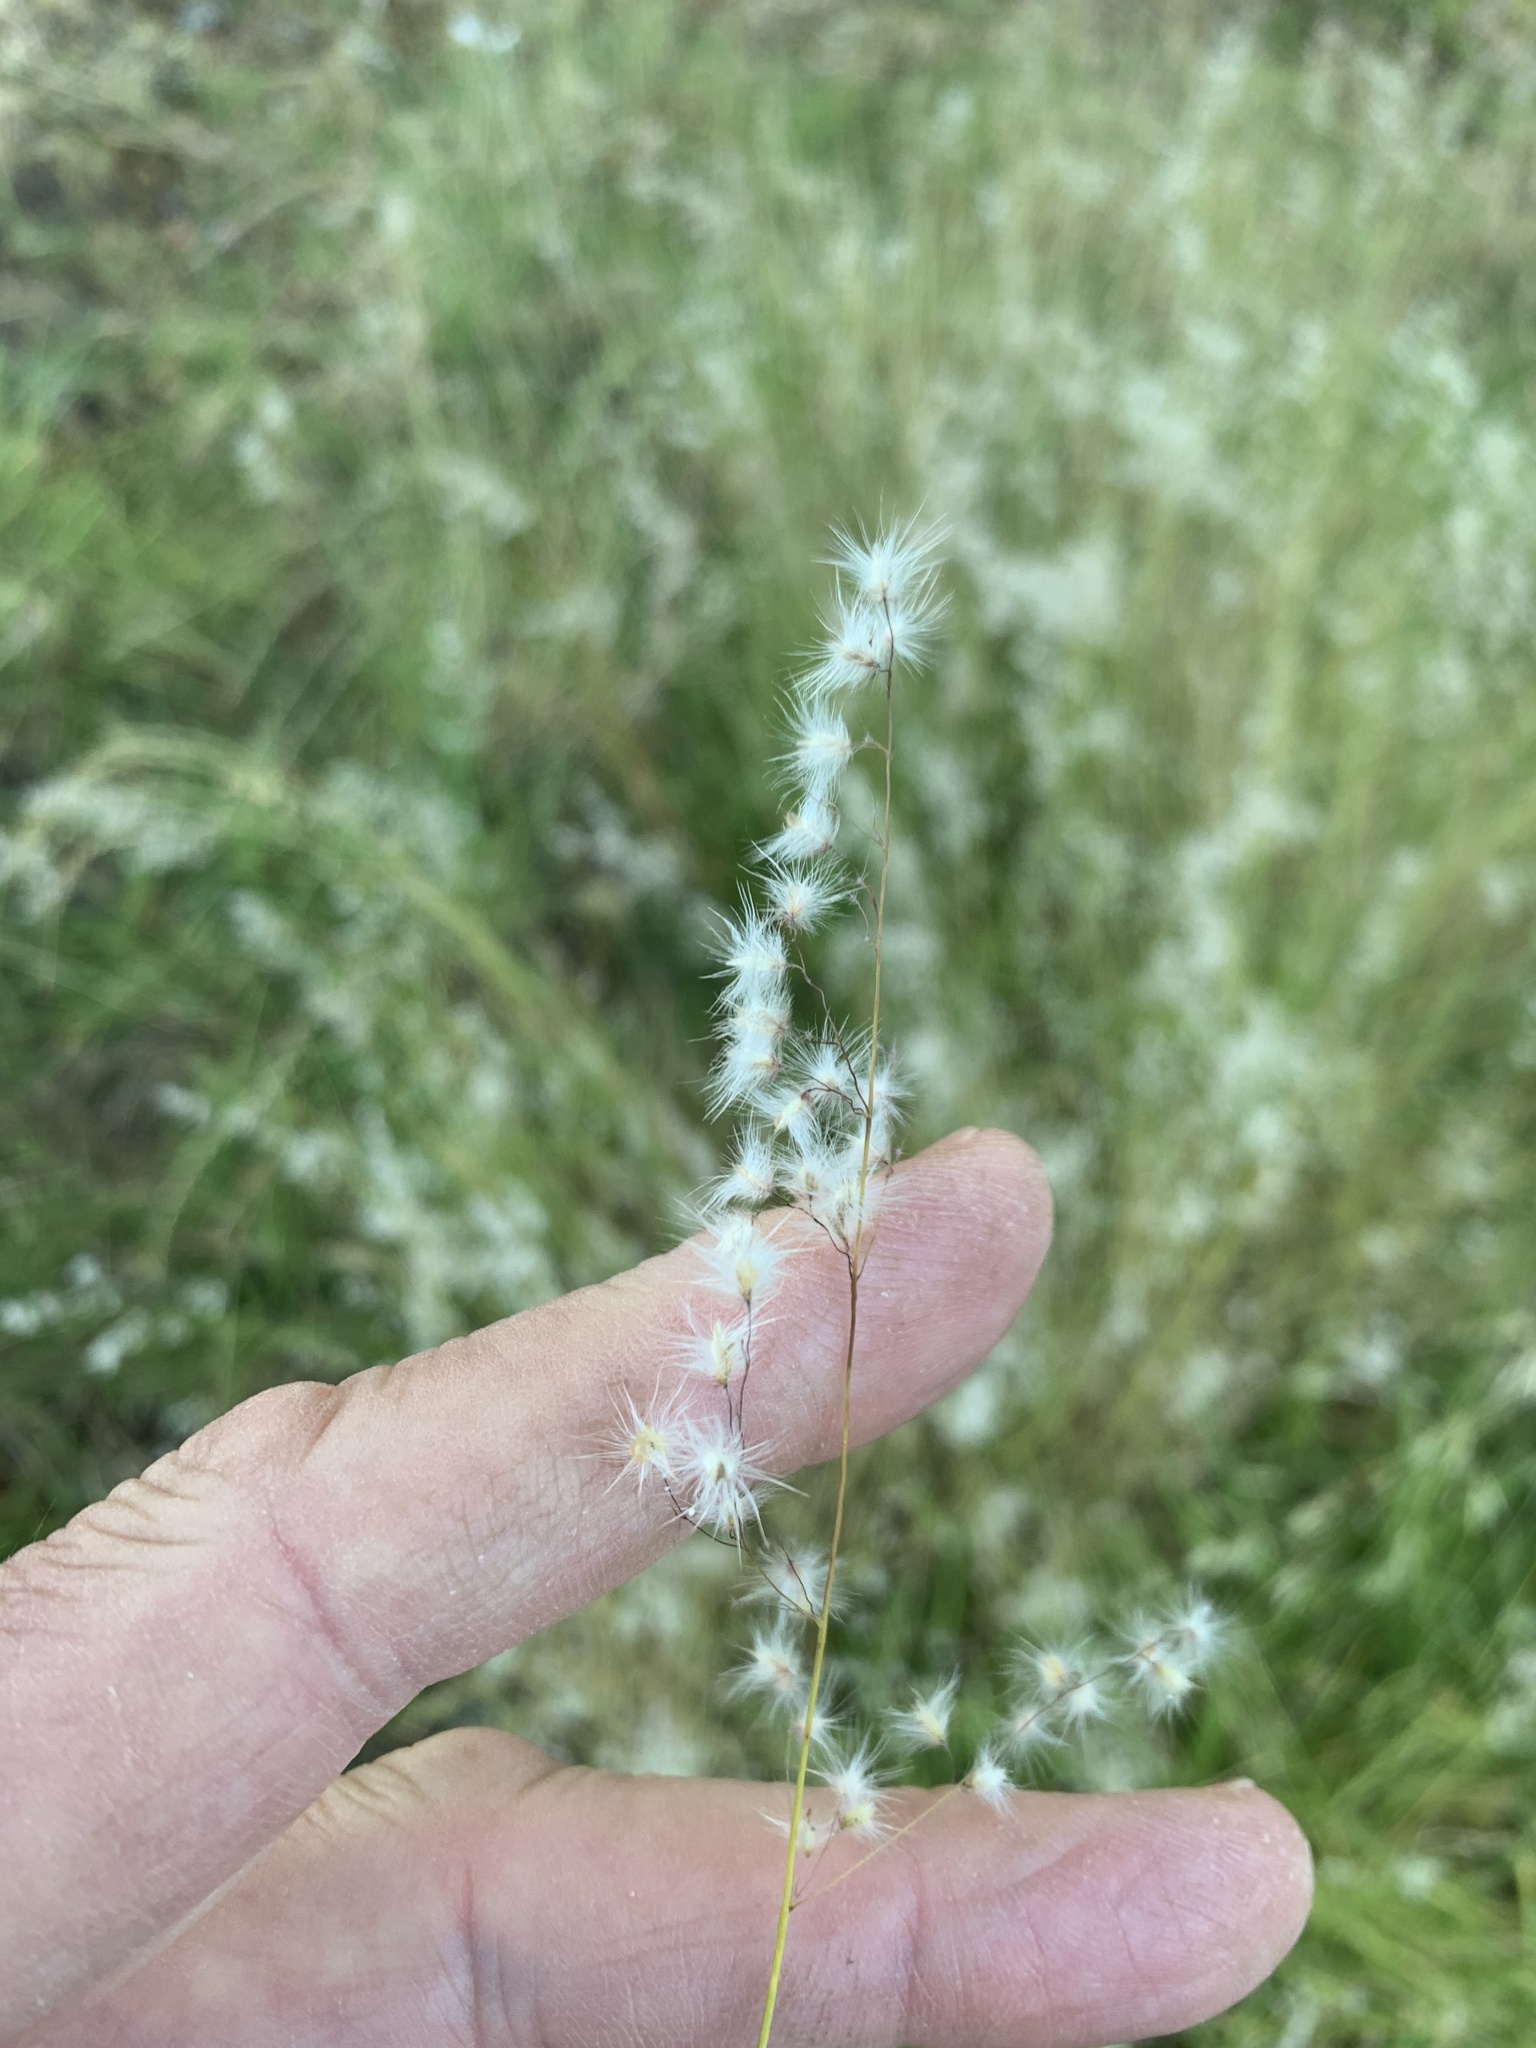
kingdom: Plantae
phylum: Tracheophyta
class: Liliopsida
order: Poales
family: Poaceae
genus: Melinis
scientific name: Melinis repens
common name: Rose natal grass
